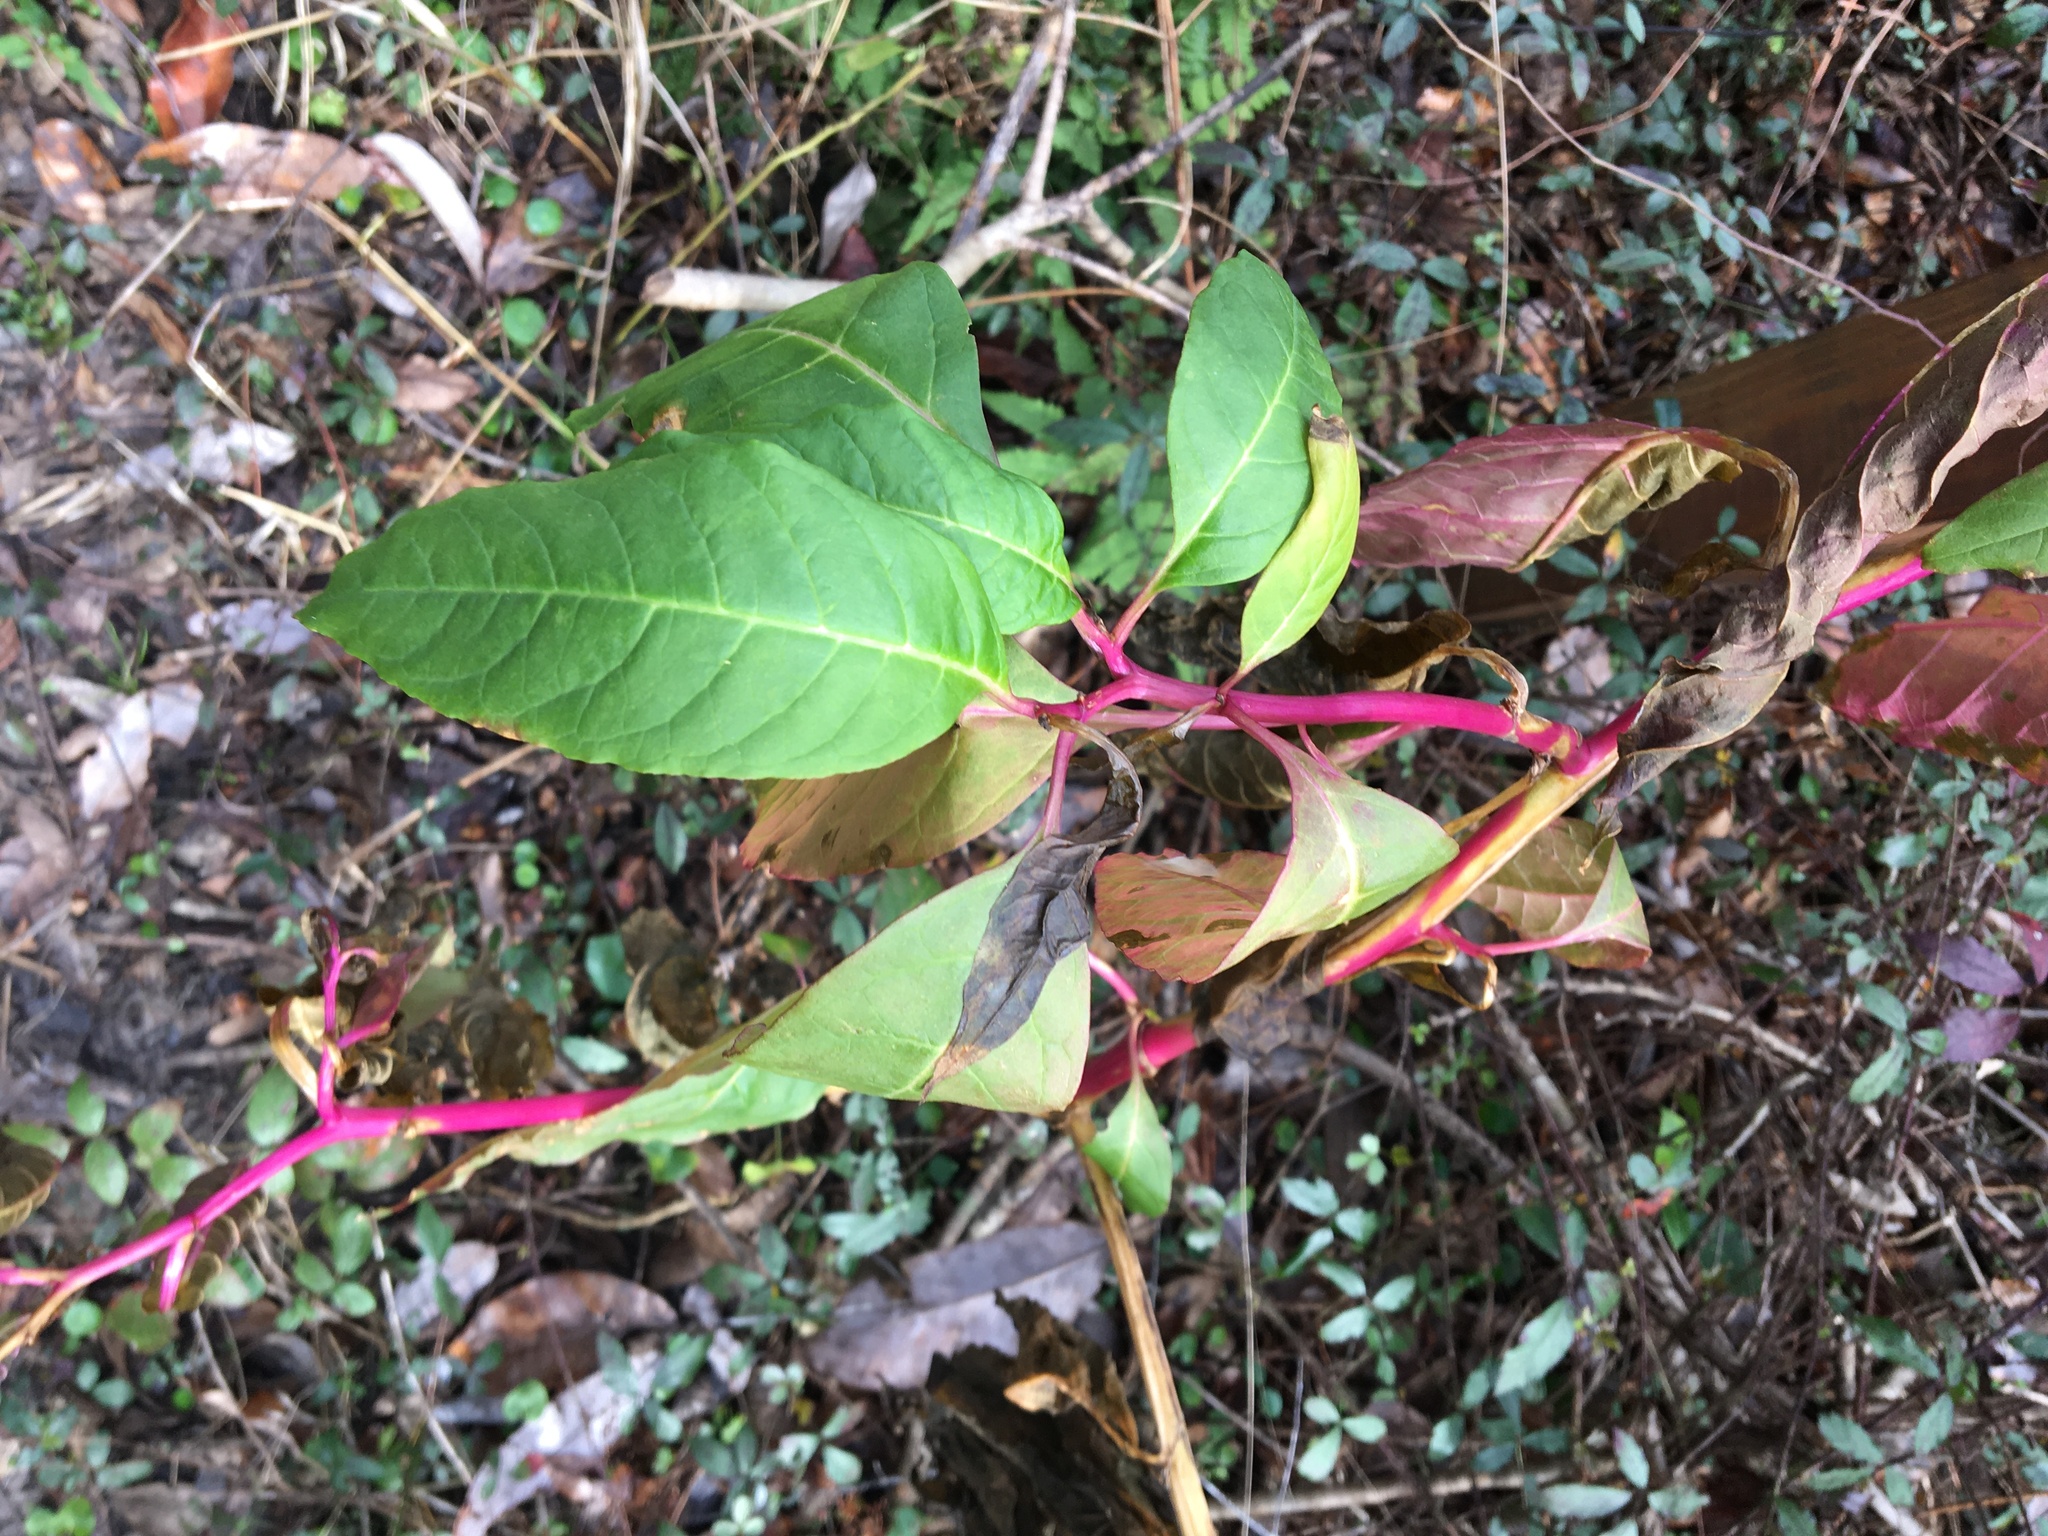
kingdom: Plantae
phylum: Tracheophyta
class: Magnoliopsida
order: Caryophyllales
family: Phytolaccaceae
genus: Phytolacca
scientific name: Phytolacca americana
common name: American pokeweed
